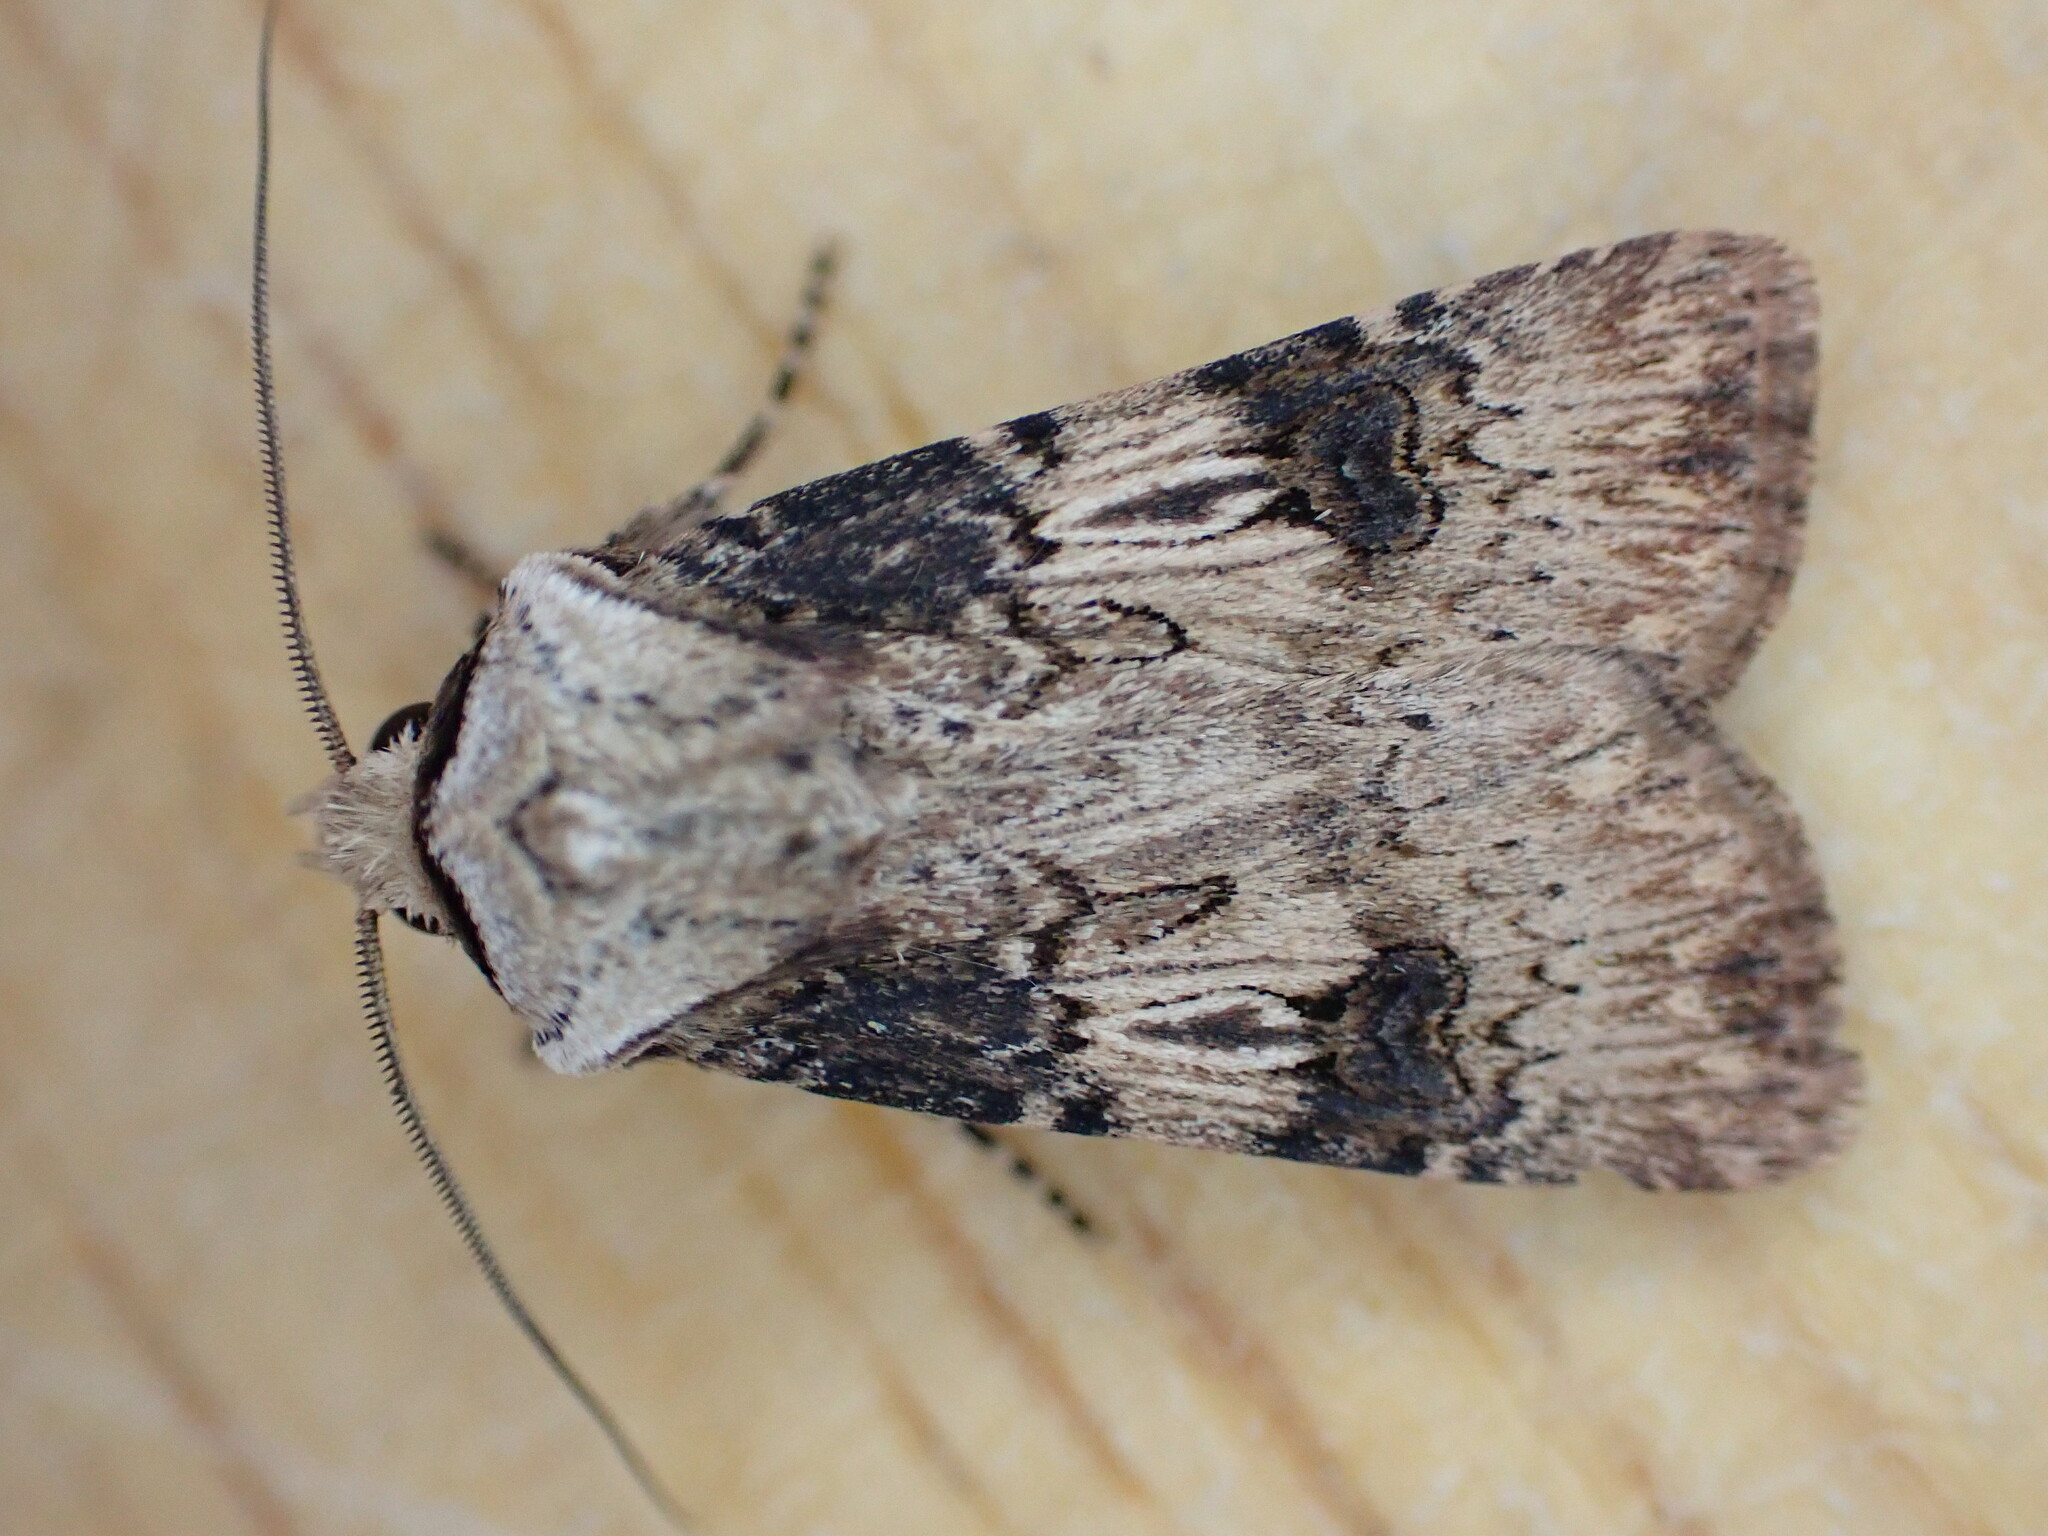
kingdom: Animalia
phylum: Arthropoda
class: Insecta
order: Lepidoptera
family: Noctuidae
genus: Agrotis
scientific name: Agrotis puta
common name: Shuttle-shaped dart
